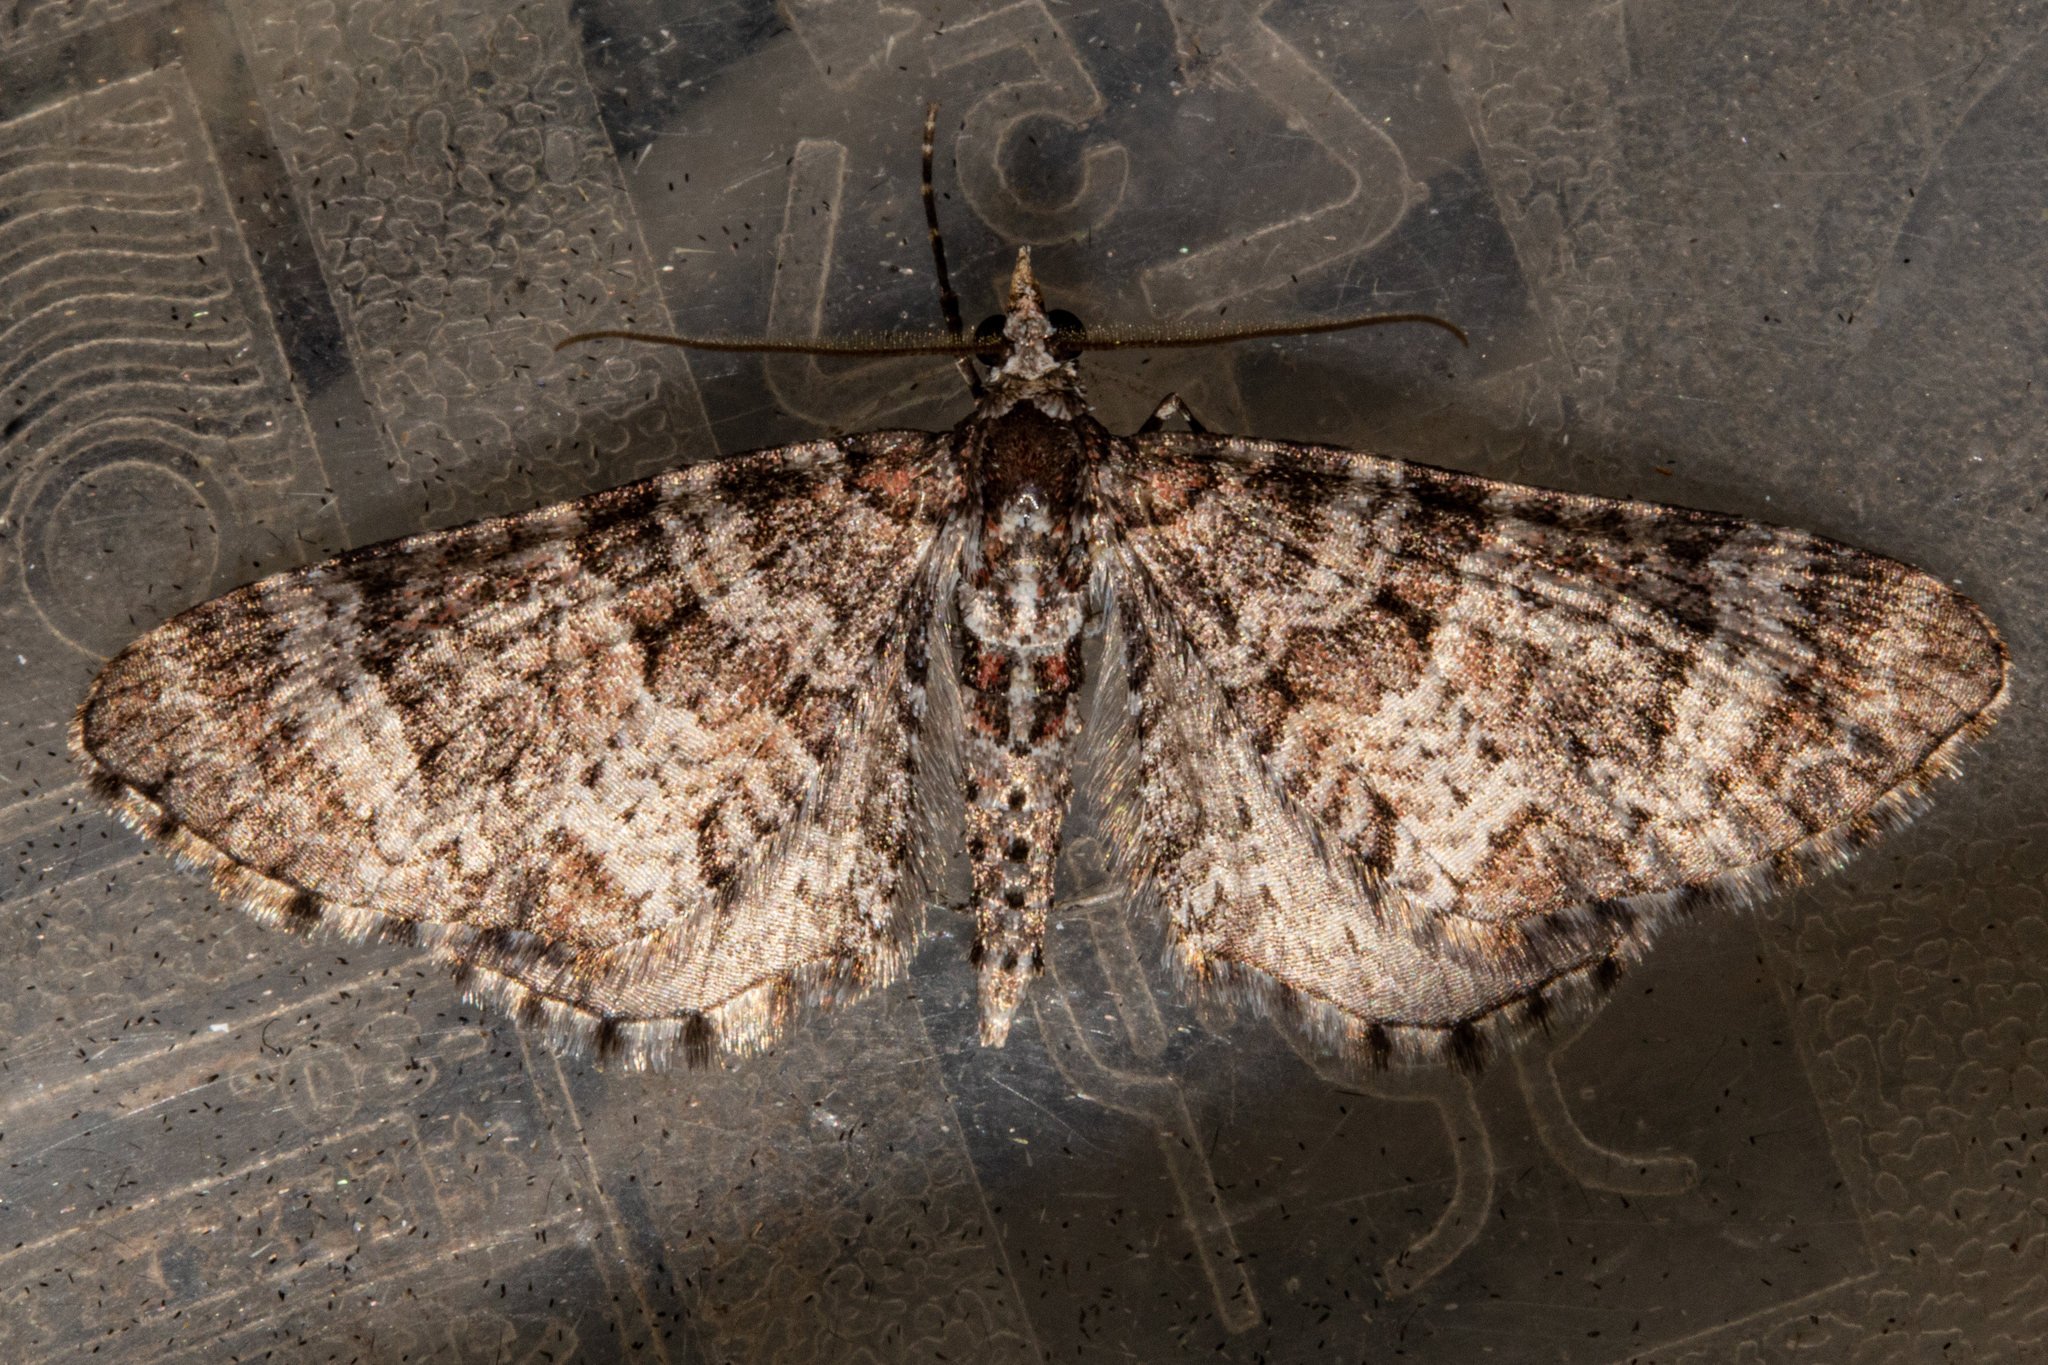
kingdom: Animalia
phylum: Arthropoda
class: Insecta
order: Lepidoptera
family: Geometridae
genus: Pasiphila
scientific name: Pasiphila halianthes
